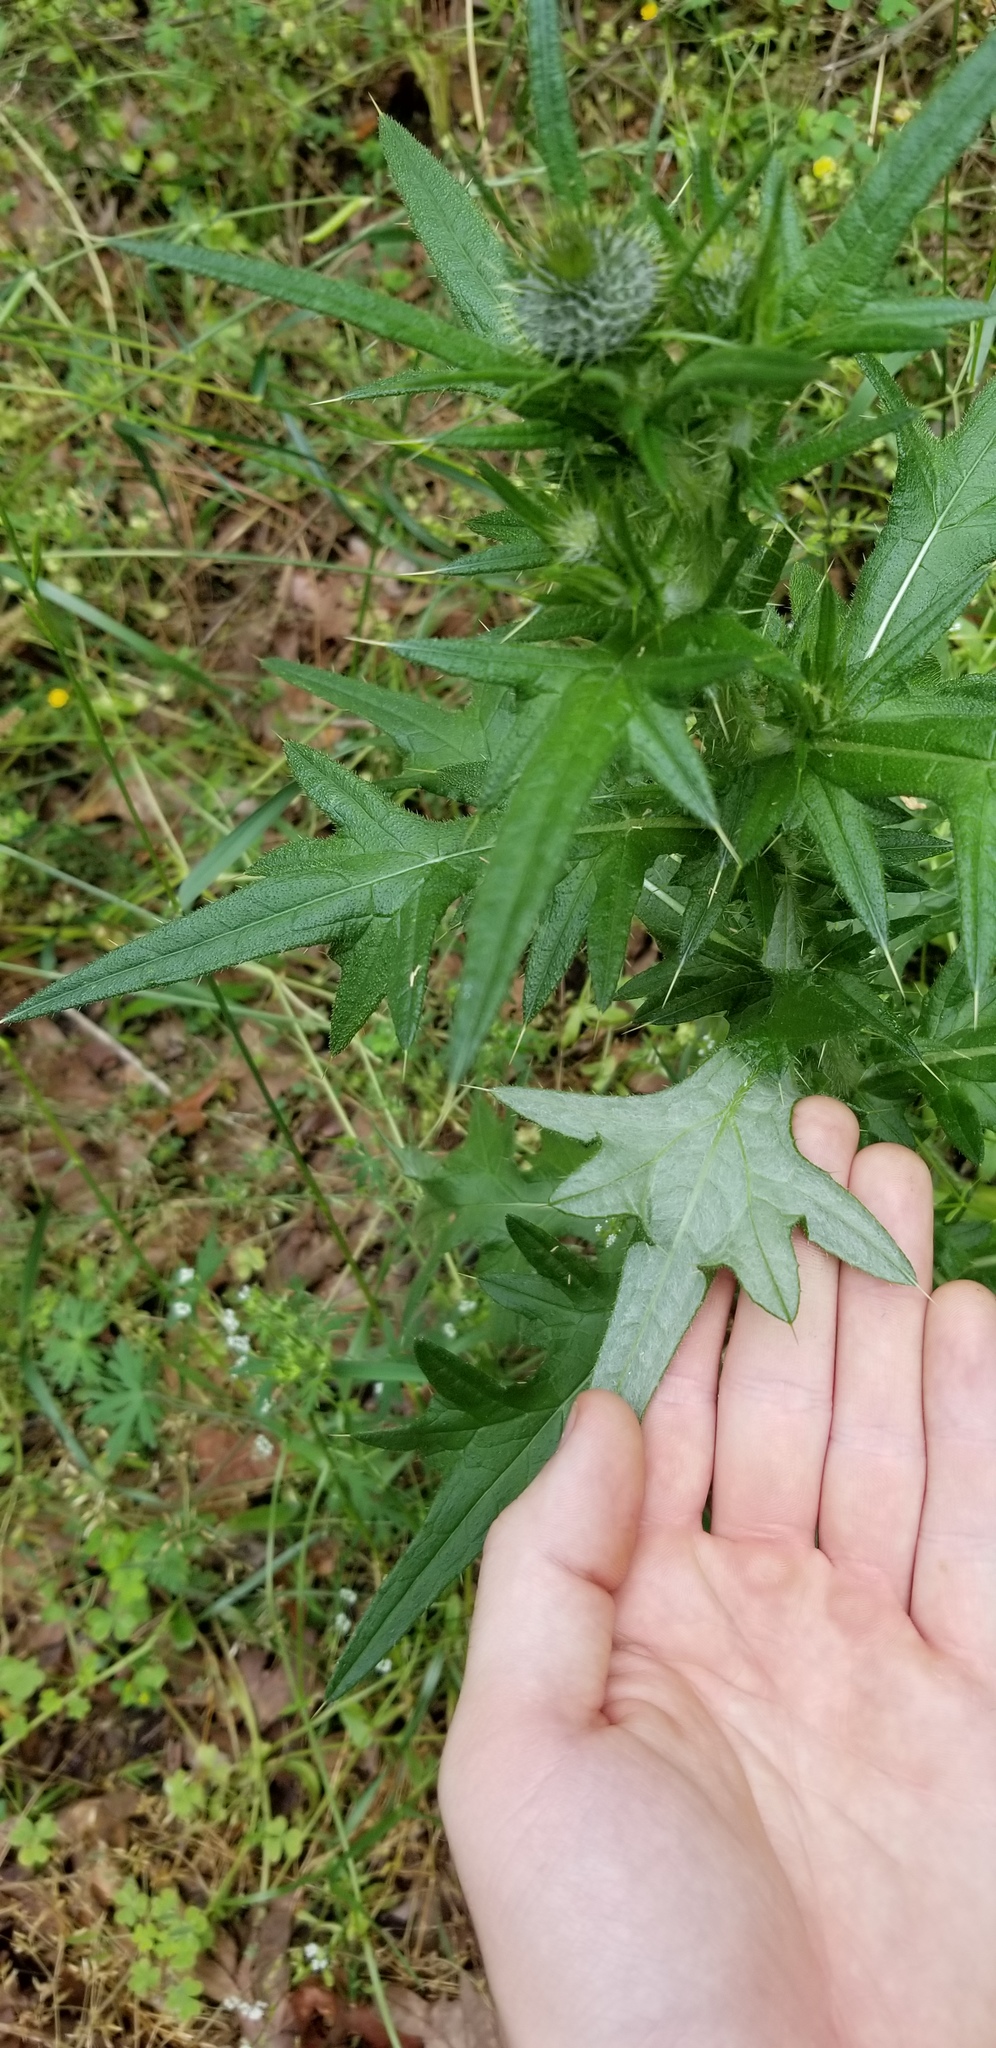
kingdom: Plantae
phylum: Tracheophyta
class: Magnoliopsida
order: Asterales
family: Asteraceae
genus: Cirsium
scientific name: Cirsium discolor
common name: Field thistle
